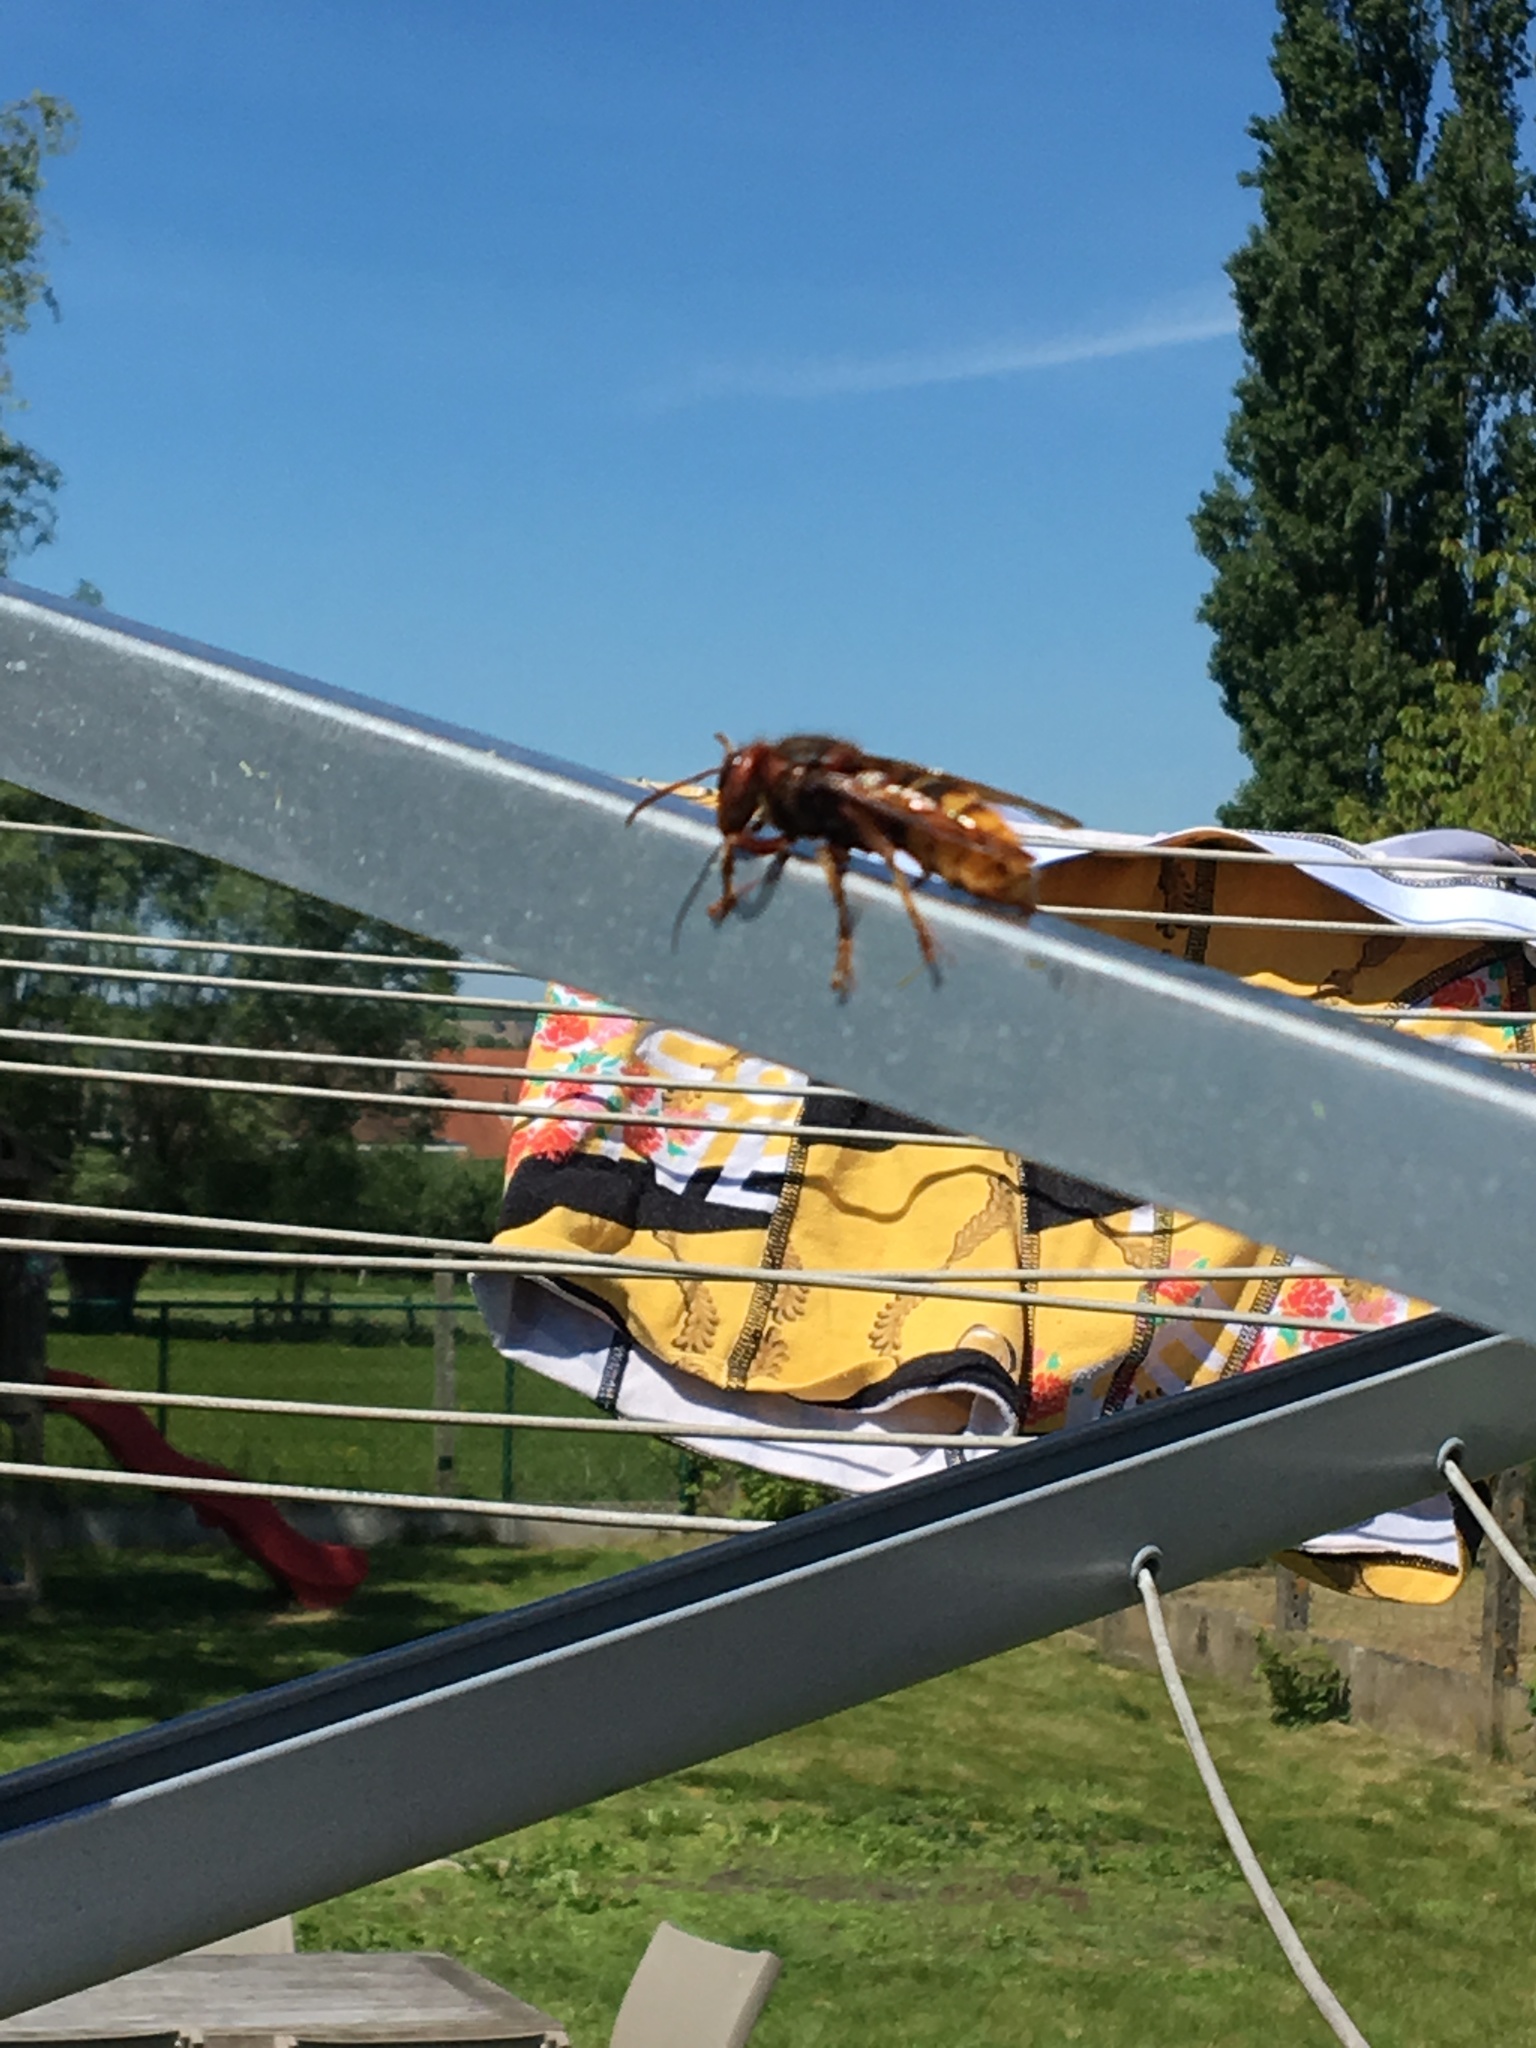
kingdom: Animalia
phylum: Arthropoda
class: Insecta
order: Hymenoptera
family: Vespidae
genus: Vespa
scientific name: Vespa crabro
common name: Hornet
